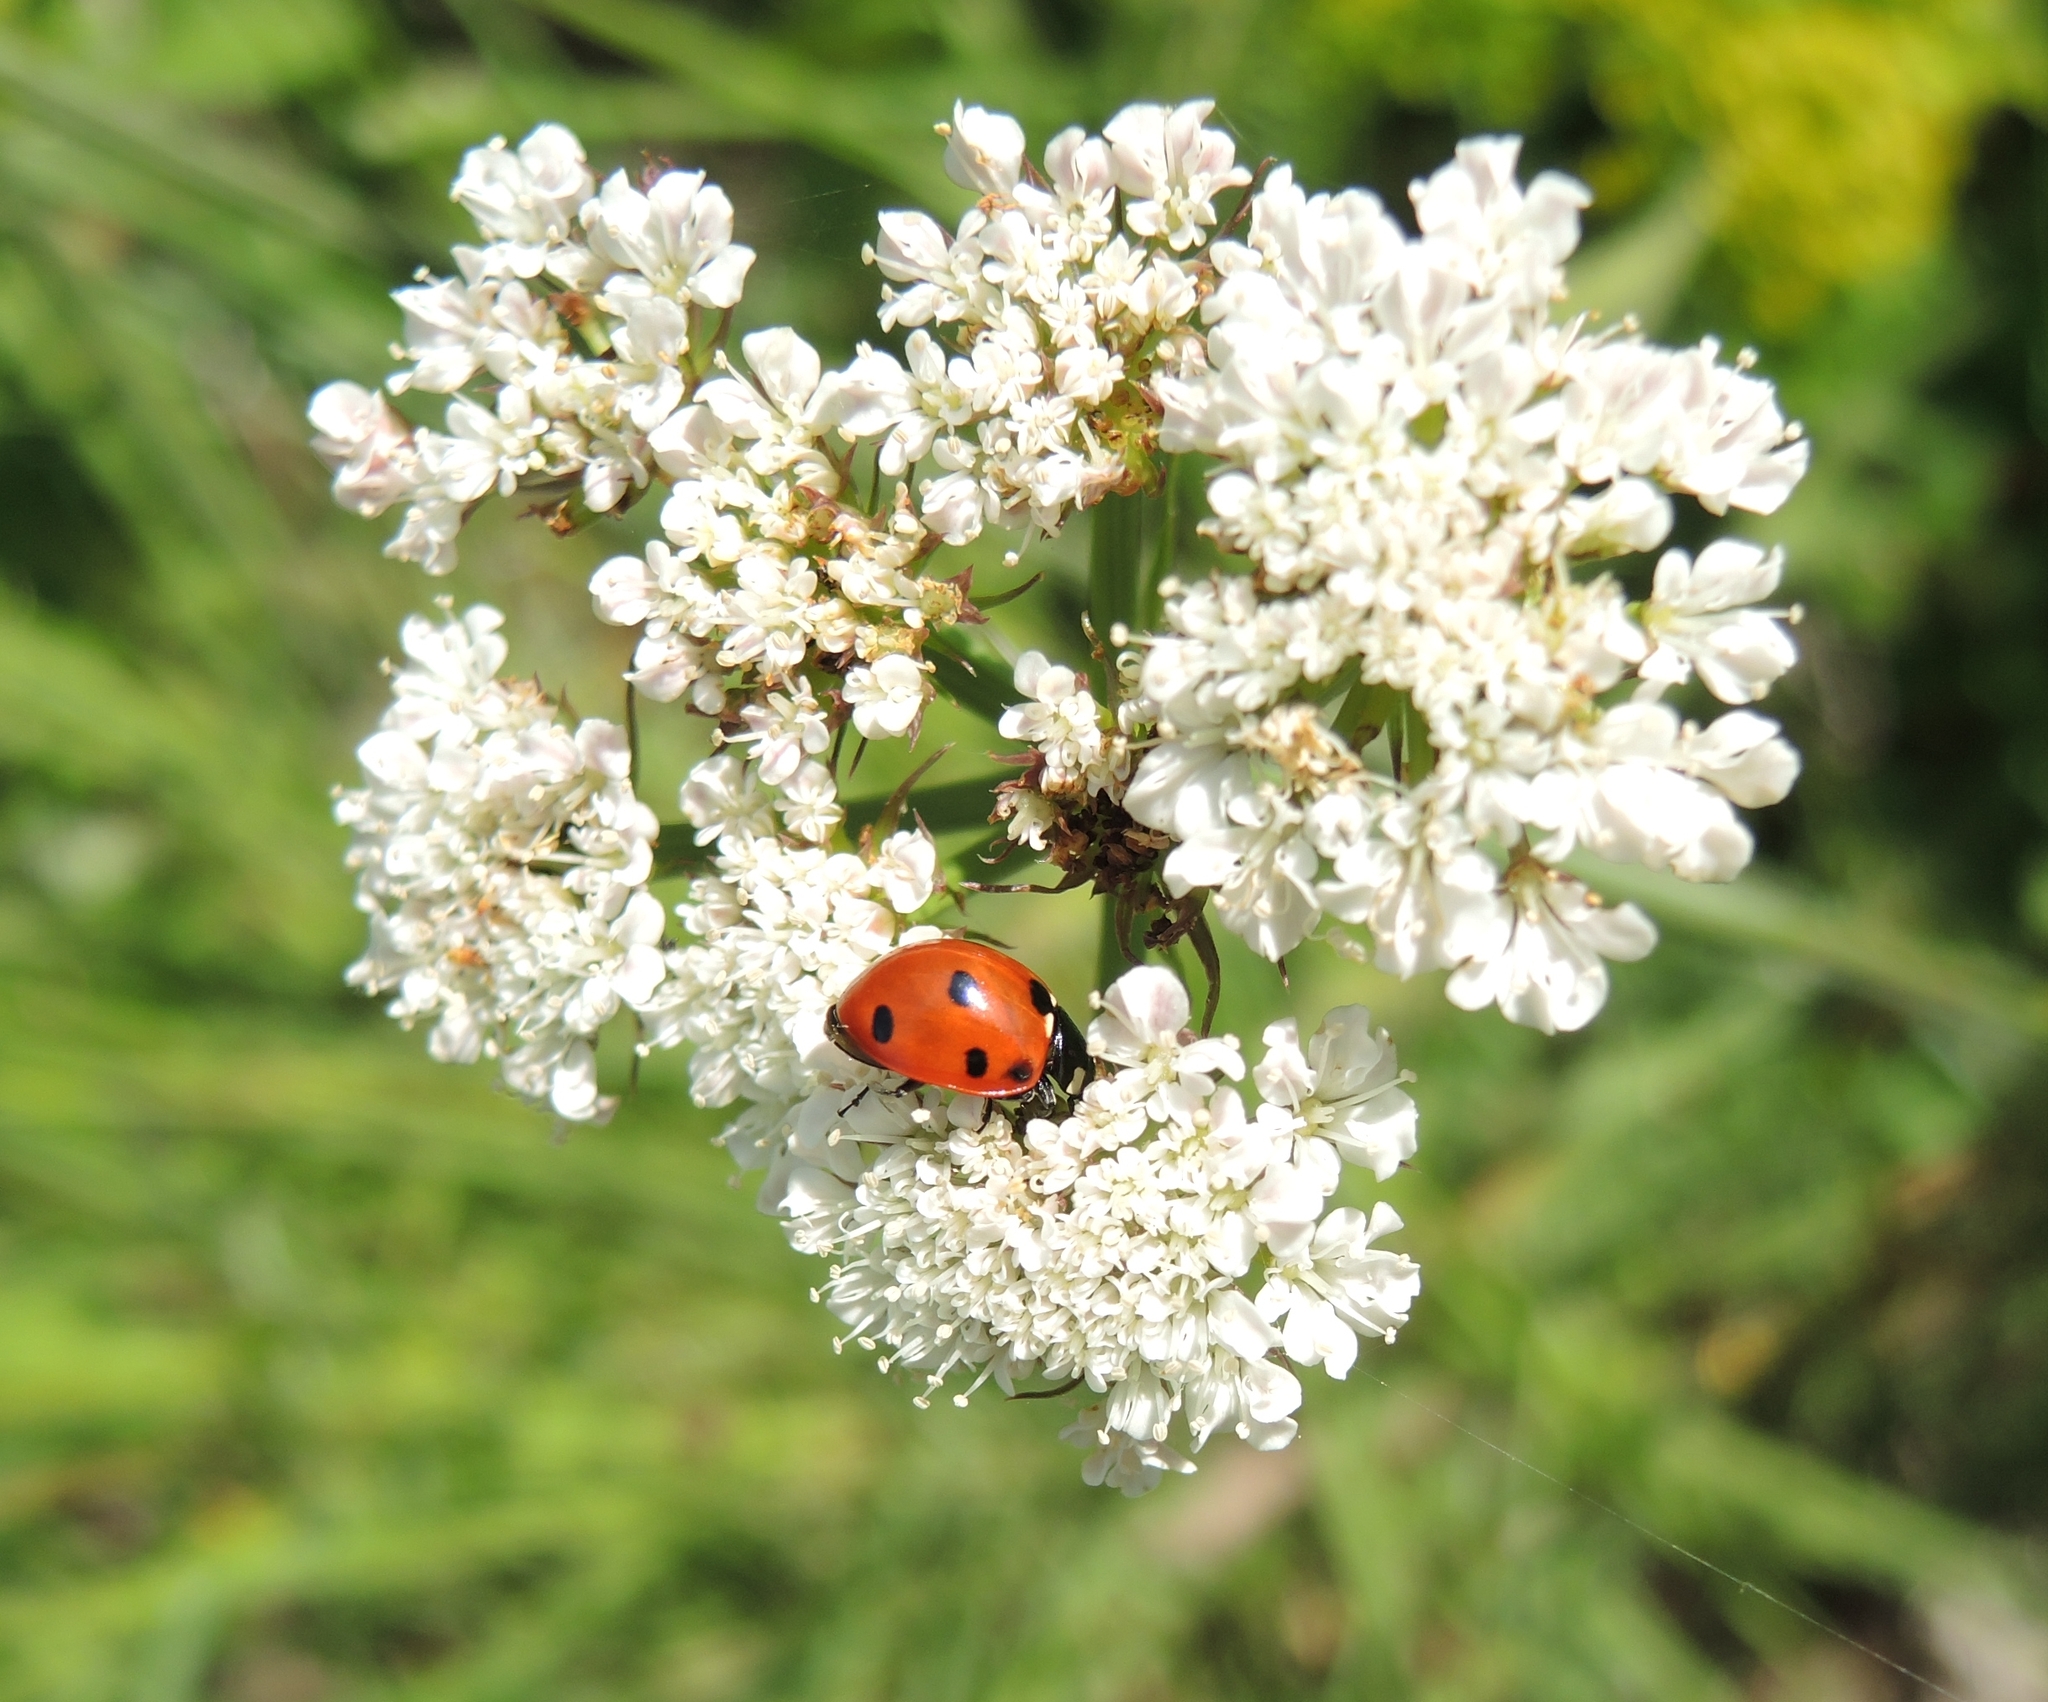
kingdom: Animalia
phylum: Arthropoda
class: Insecta
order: Coleoptera
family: Coccinellidae
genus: Coccinella
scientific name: Coccinella septempunctata
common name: Sevenspotted lady beetle
